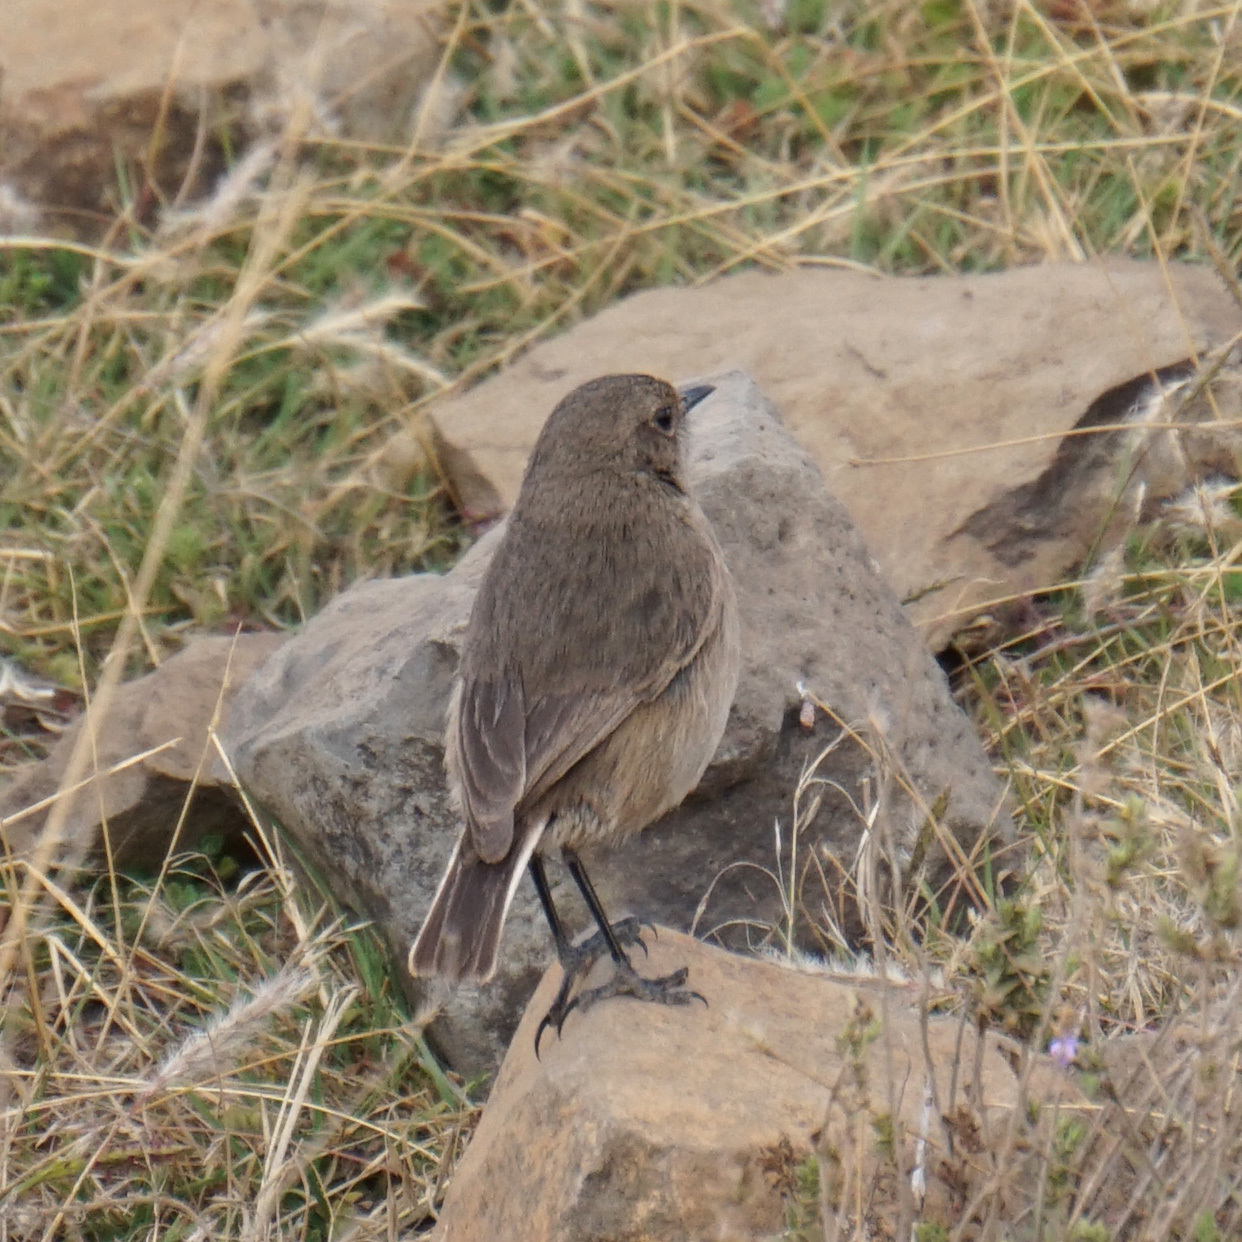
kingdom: Animalia
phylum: Chordata
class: Aves
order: Passeriformes
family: Muscicapidae
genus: Pinarochroa
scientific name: Pinarochroa sordida
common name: Moorland chat
